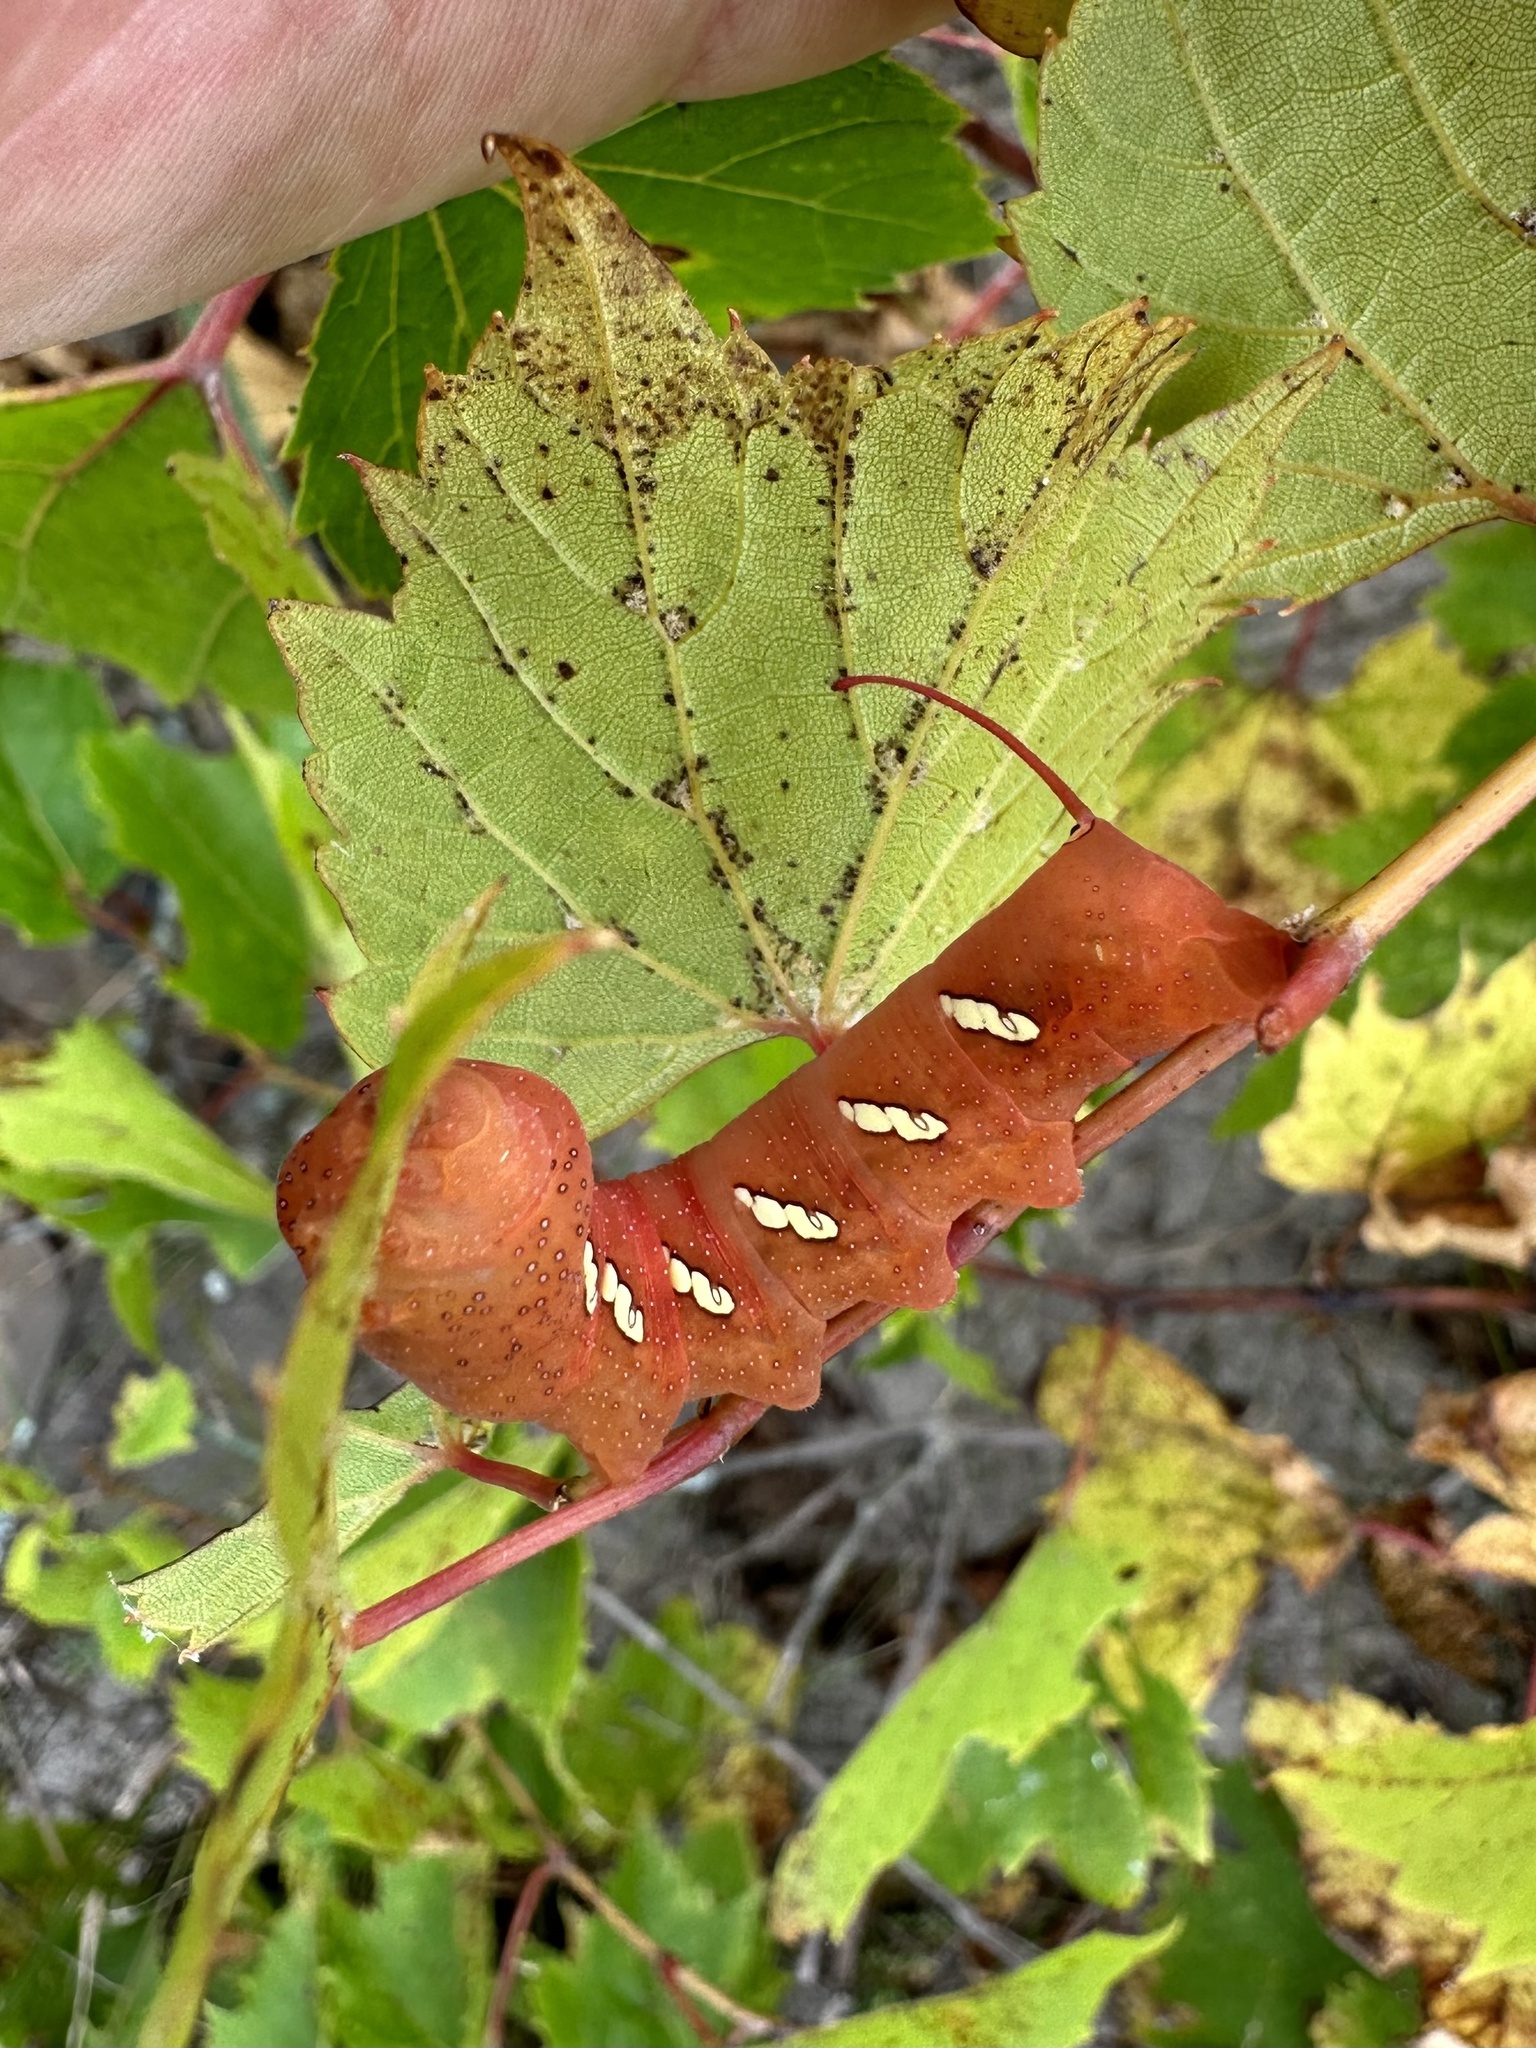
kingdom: Animalia
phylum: Arthropoda
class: Insecta
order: Lepidoptera
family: Sphingidae
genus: Eumorpha
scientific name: Eumorpha achemon
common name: Achemon sphinx
